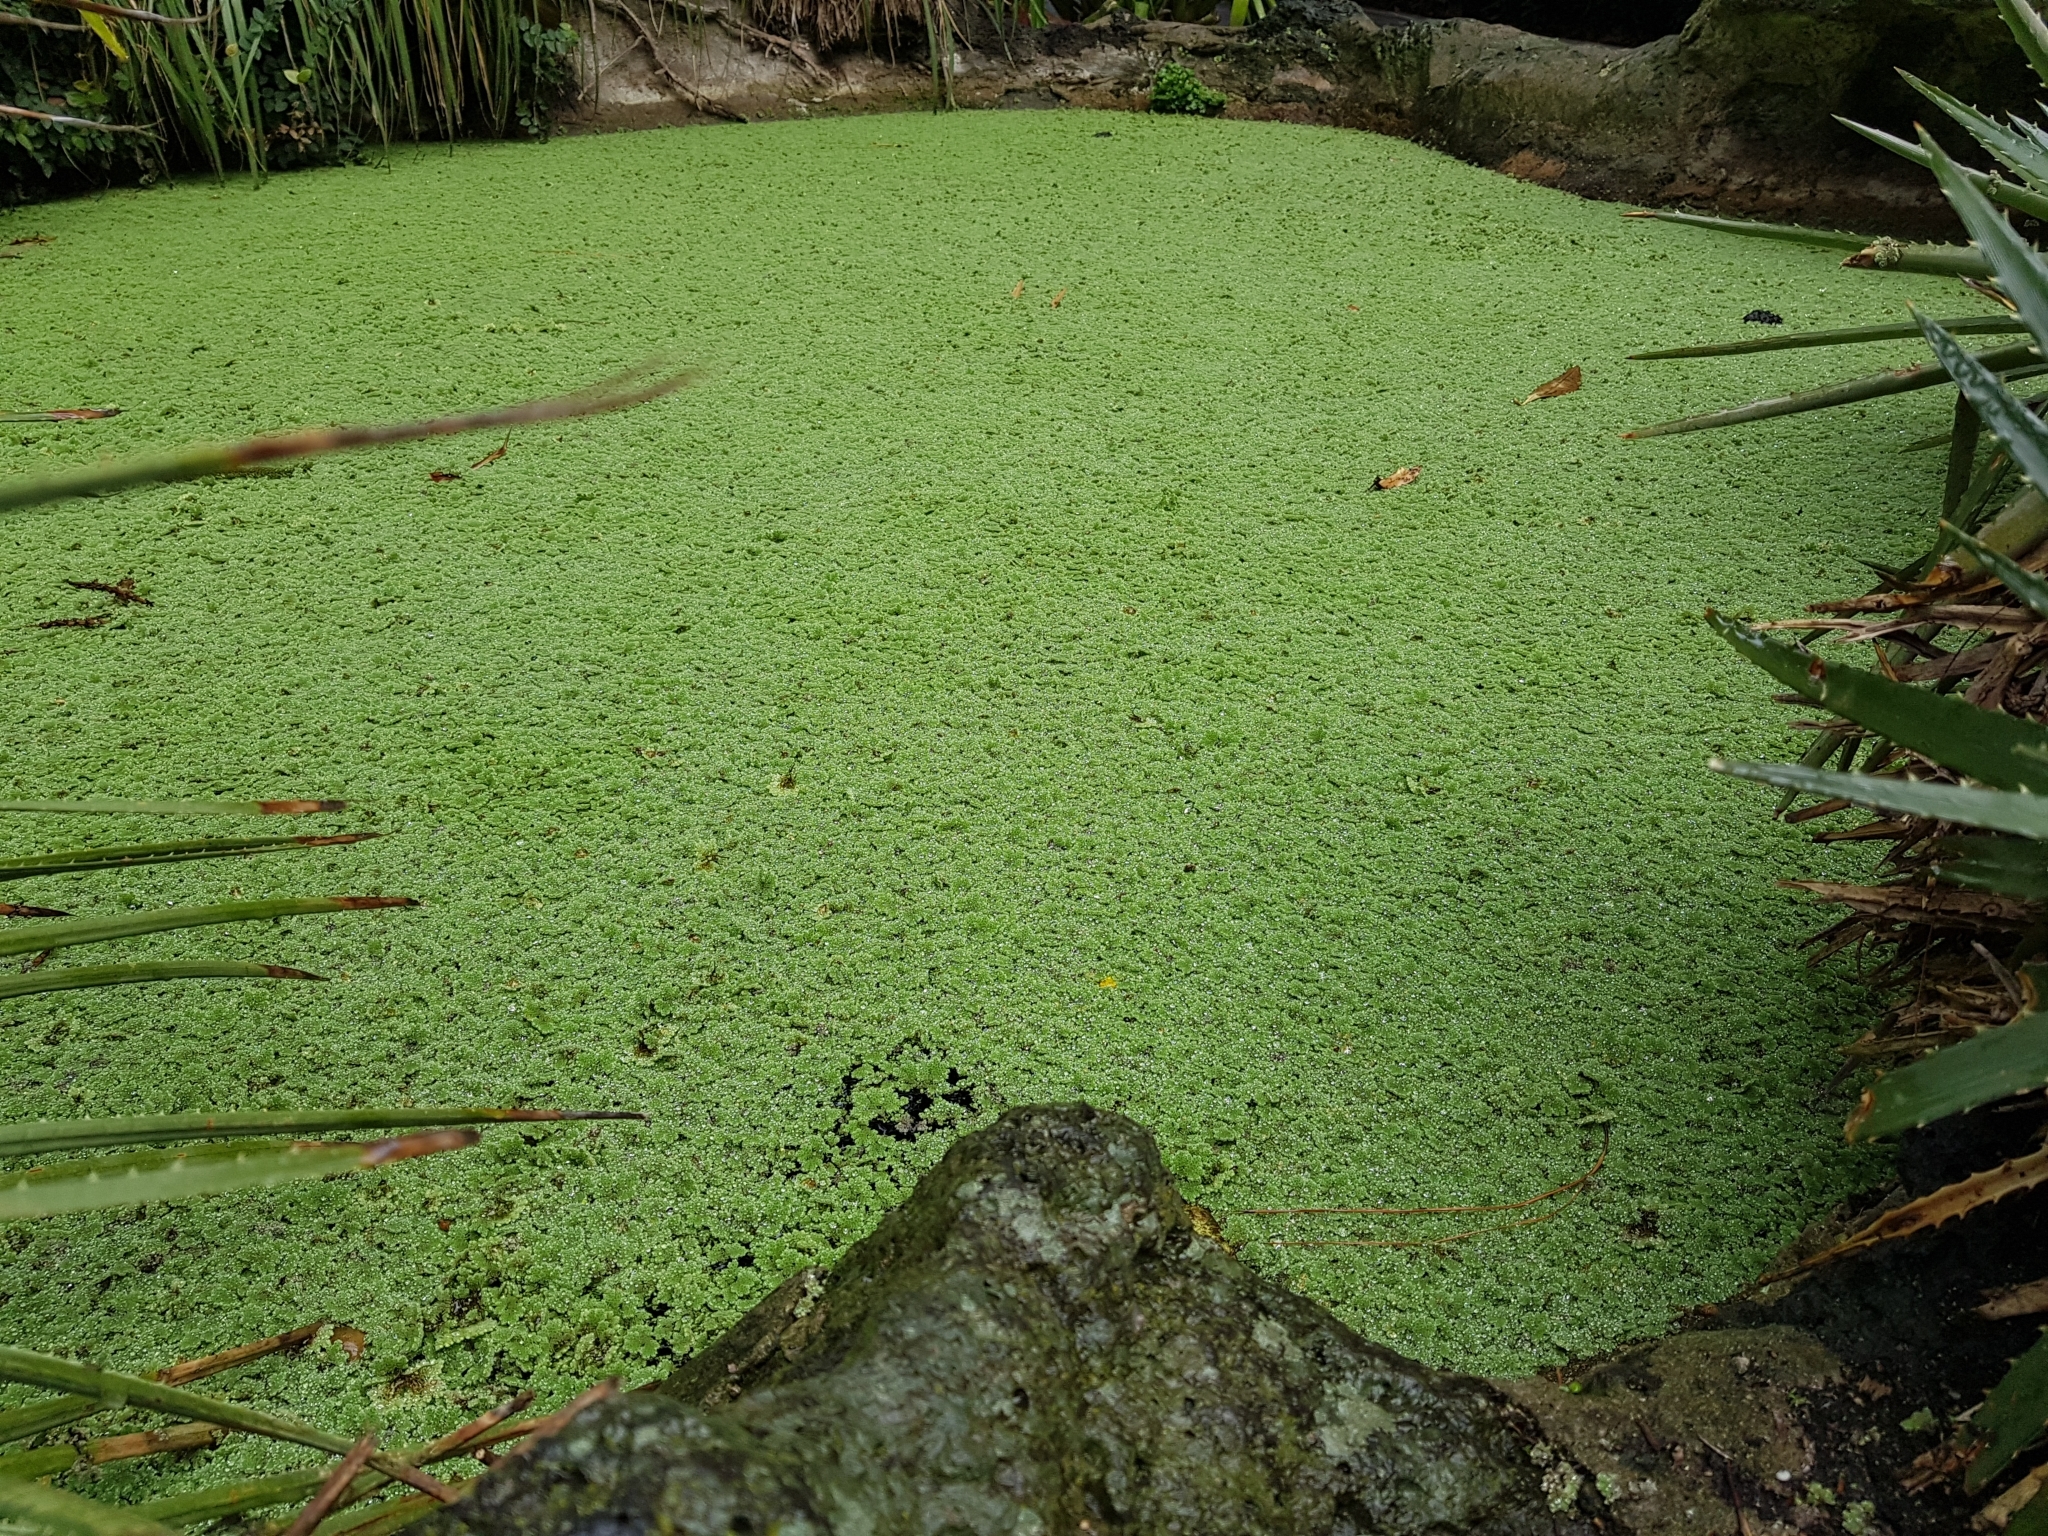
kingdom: Plantae
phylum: Tracheophyta
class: Polypodiopsida
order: Salviniales
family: Salviniaceae
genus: Azolla
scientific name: Azolla rubra
